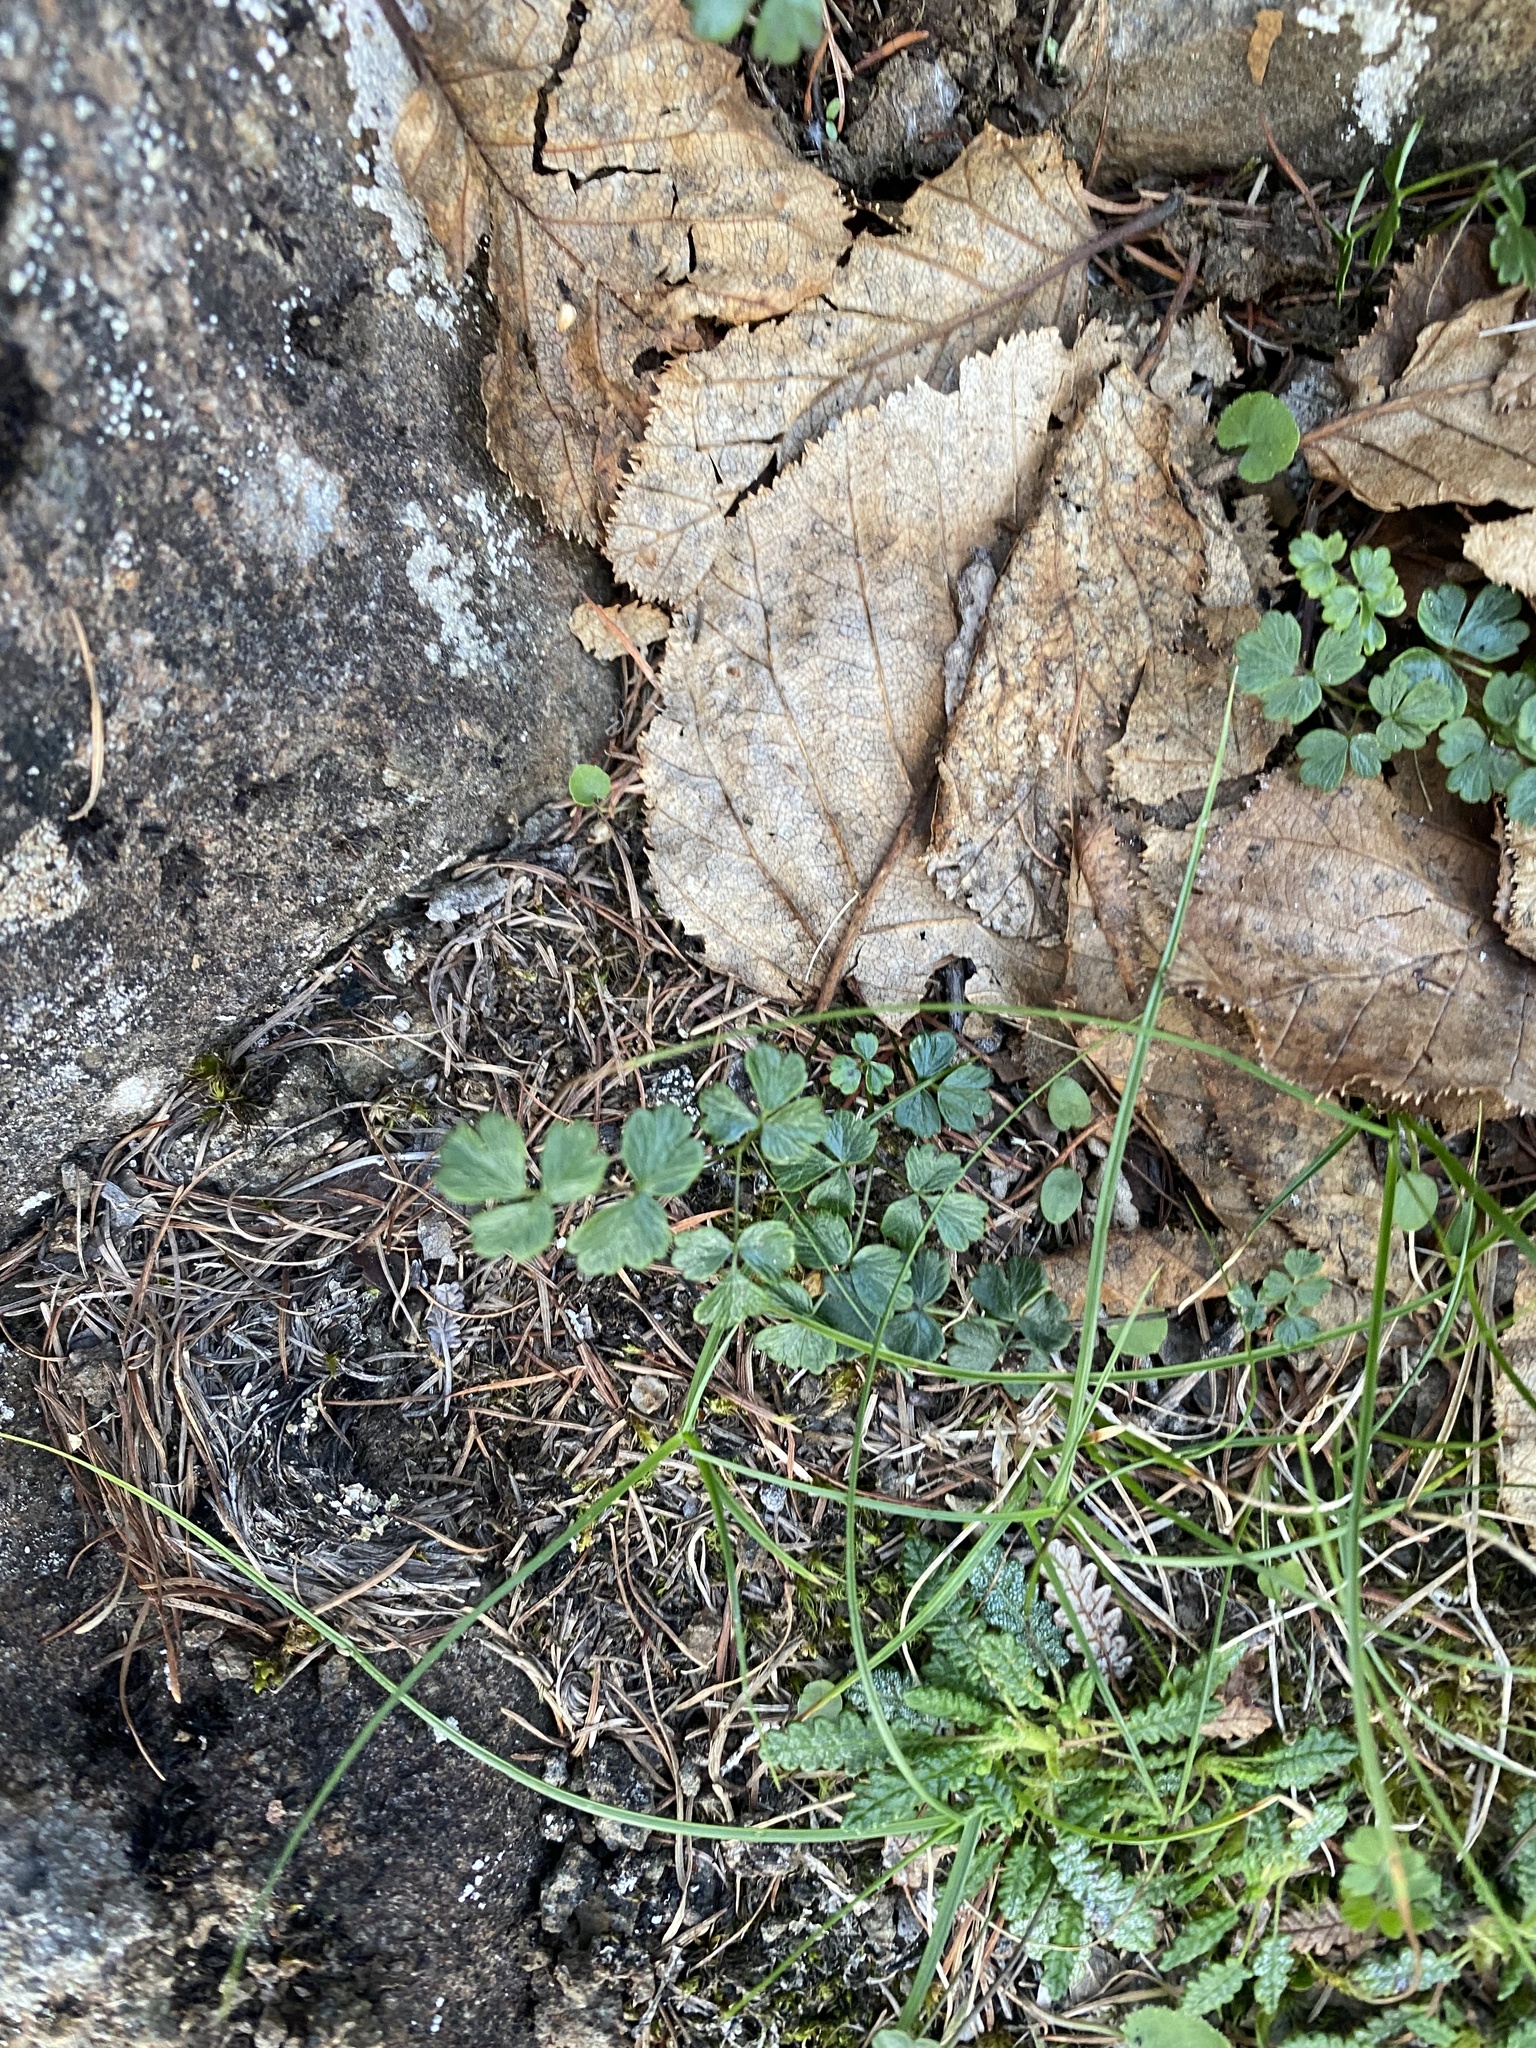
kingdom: Plantae
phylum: Tracheophyta
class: Magnoliopsida
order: Ranunculales
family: Ranunculaceae
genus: Thalictrum
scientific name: Thalictrum alpinum
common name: Alpine meadow-rue
